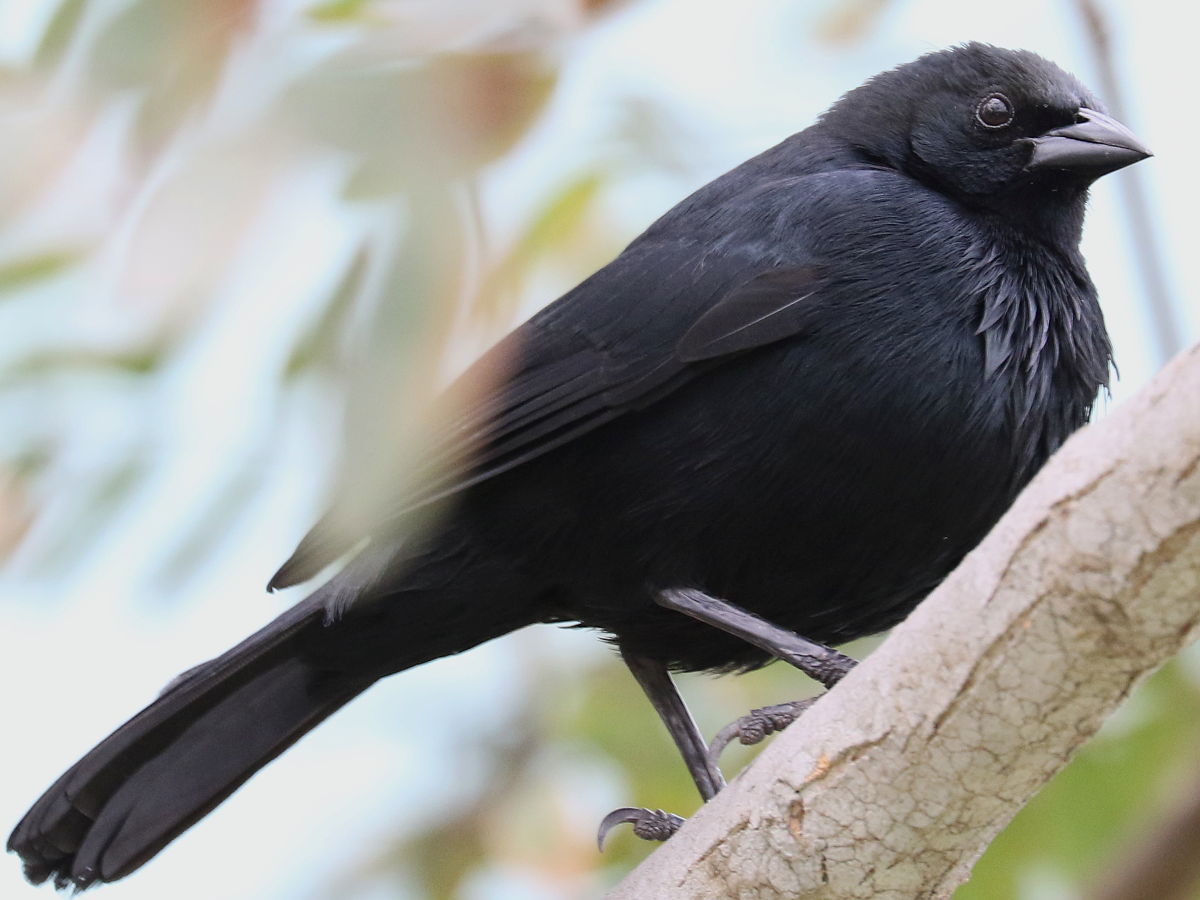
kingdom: Animalia
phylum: Chordata
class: Aves
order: Passeriformes
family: Icteridae
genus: Dives
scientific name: Dives warczewiczi
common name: Scrub blackbird
